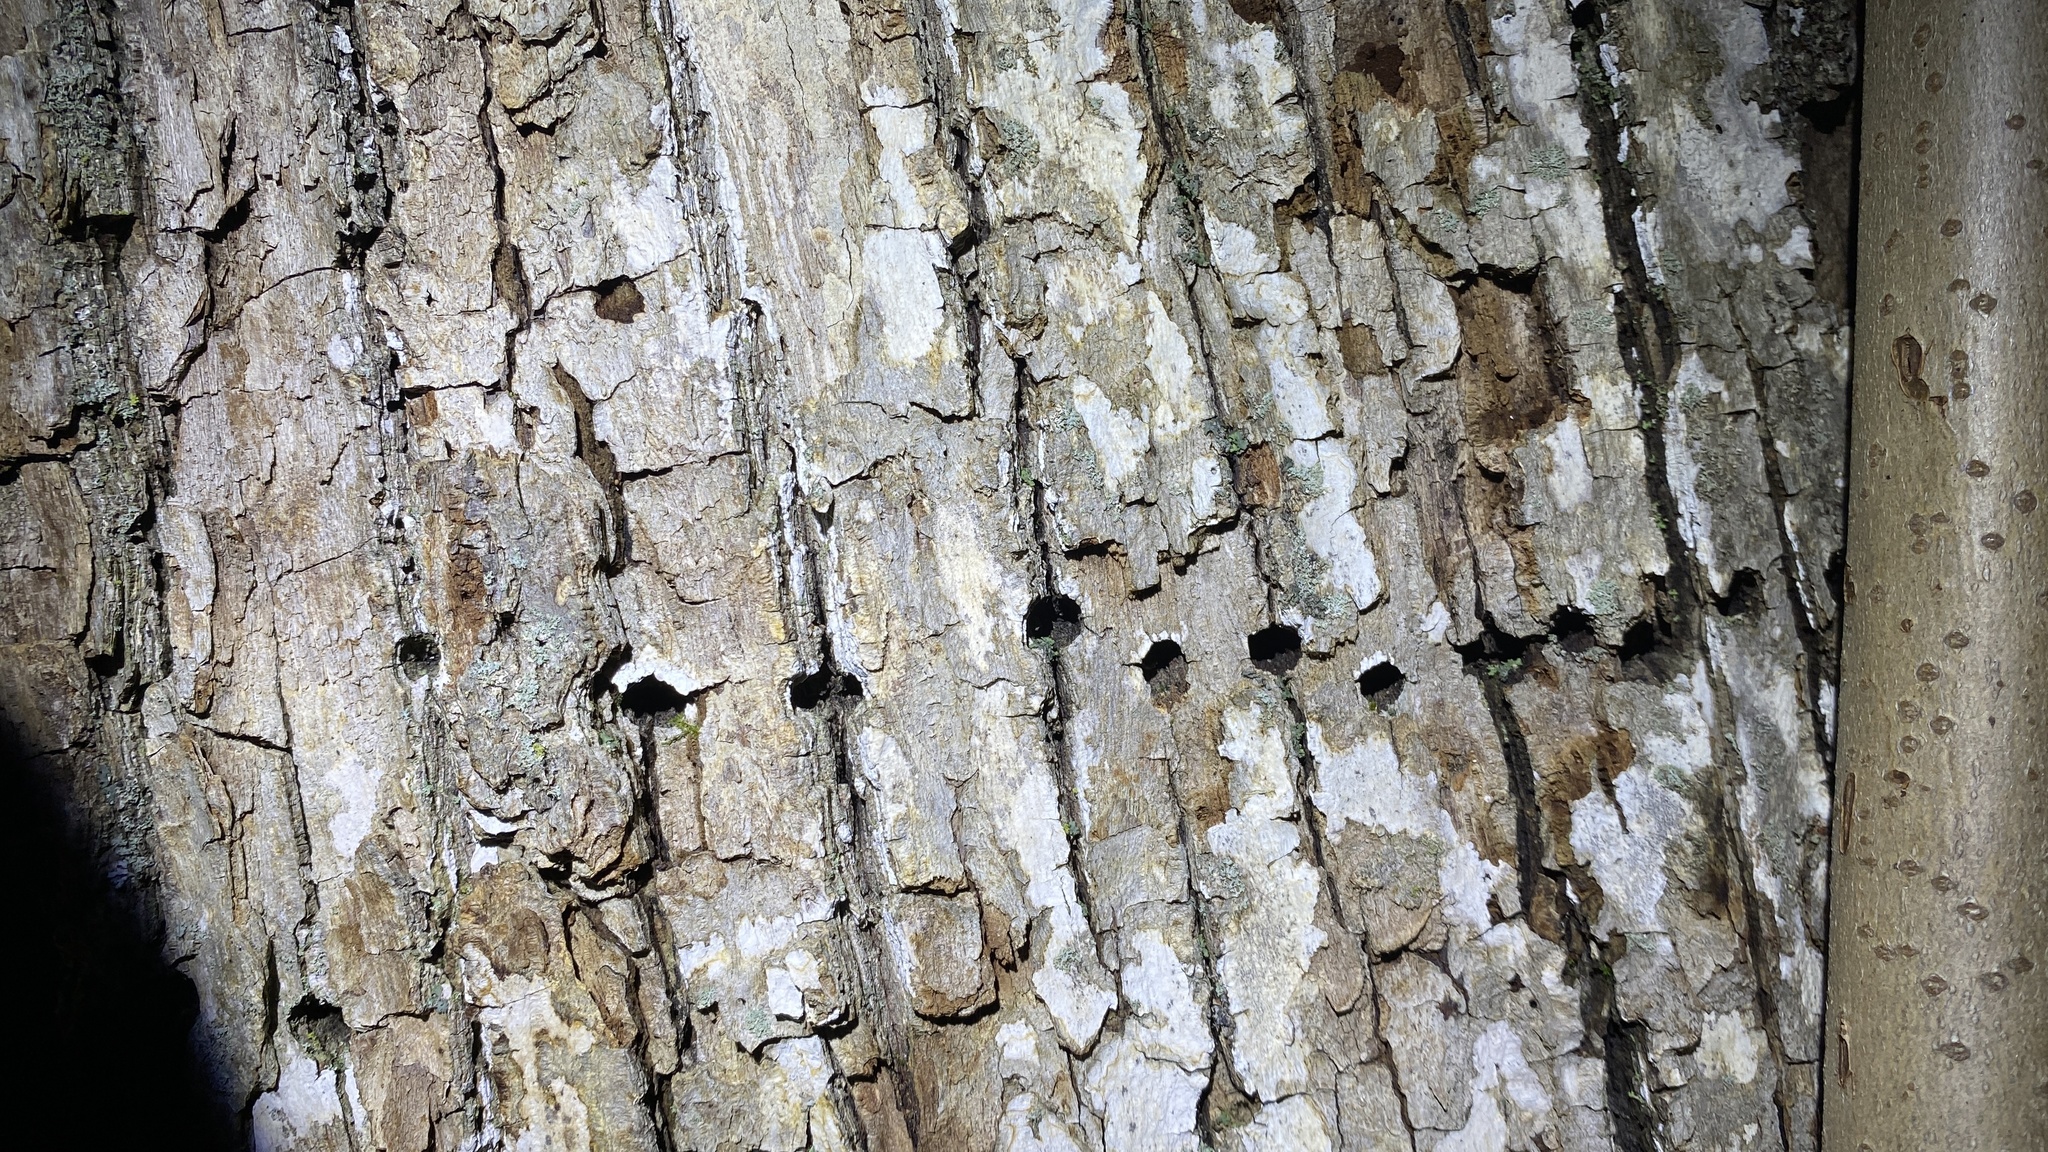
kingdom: Animalia
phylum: Chordata
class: Aves
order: Piciformes
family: Picidae
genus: Sphyrapicus
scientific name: Sphyrapicus varius
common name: Yellow-bellied sapsucker
